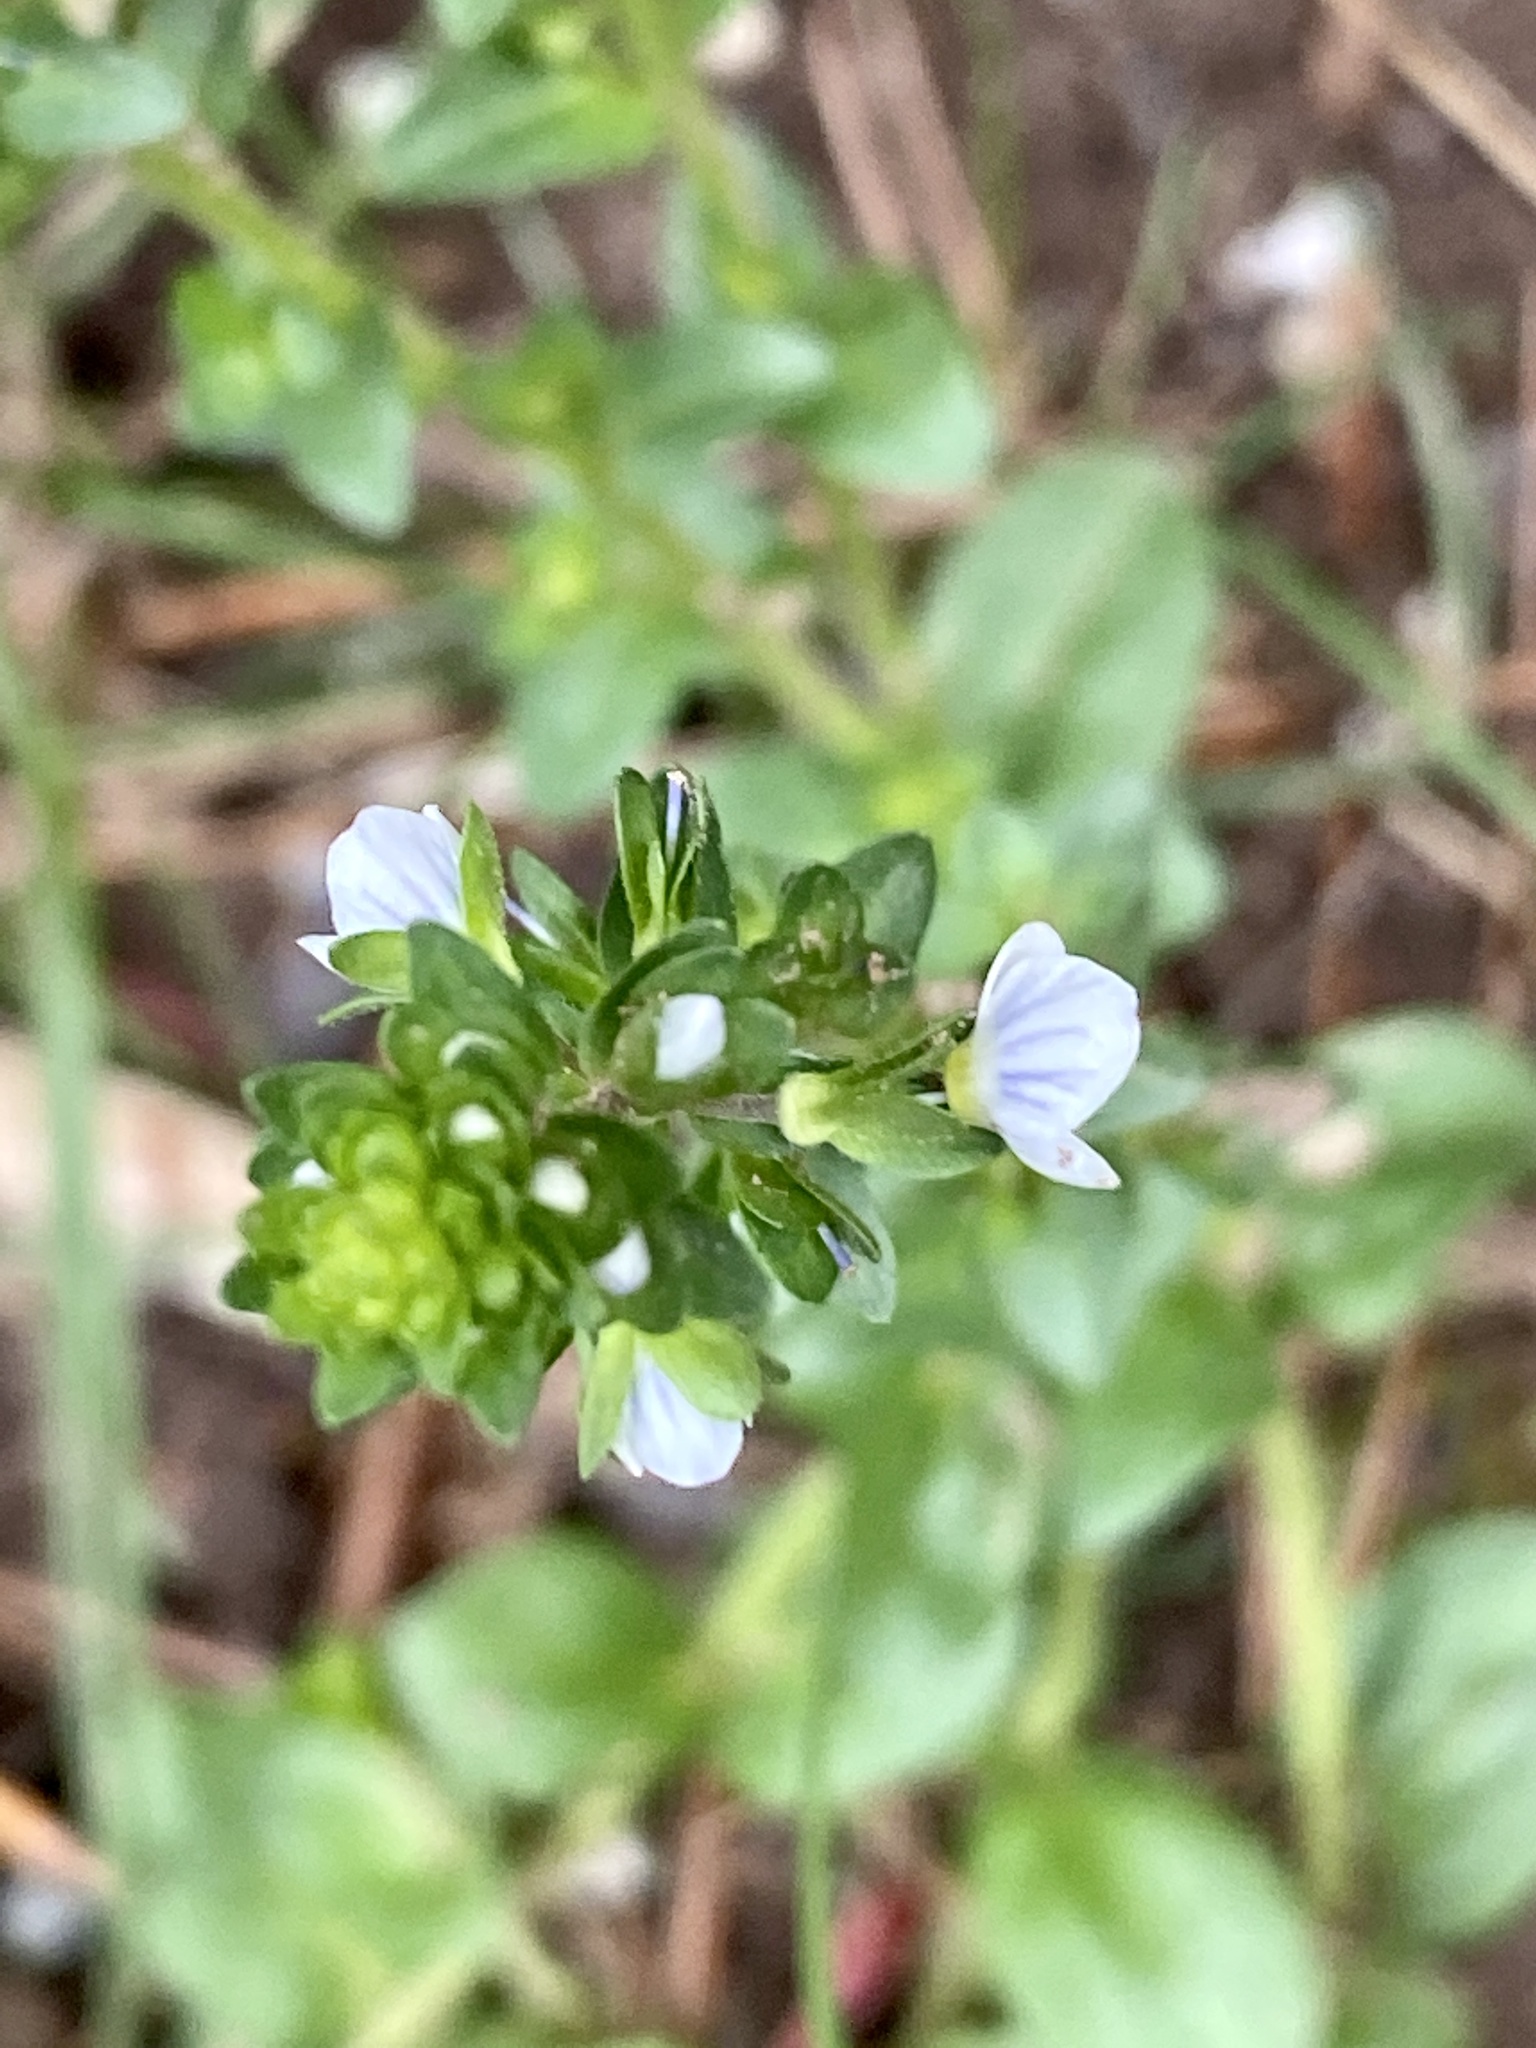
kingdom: Plantae
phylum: Tracheophyta
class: Magnoliopsida
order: Lamiales
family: Plantaginaceae
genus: Veronica
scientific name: Veronica serpyllifolia
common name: Thyme-leaved speedwell
